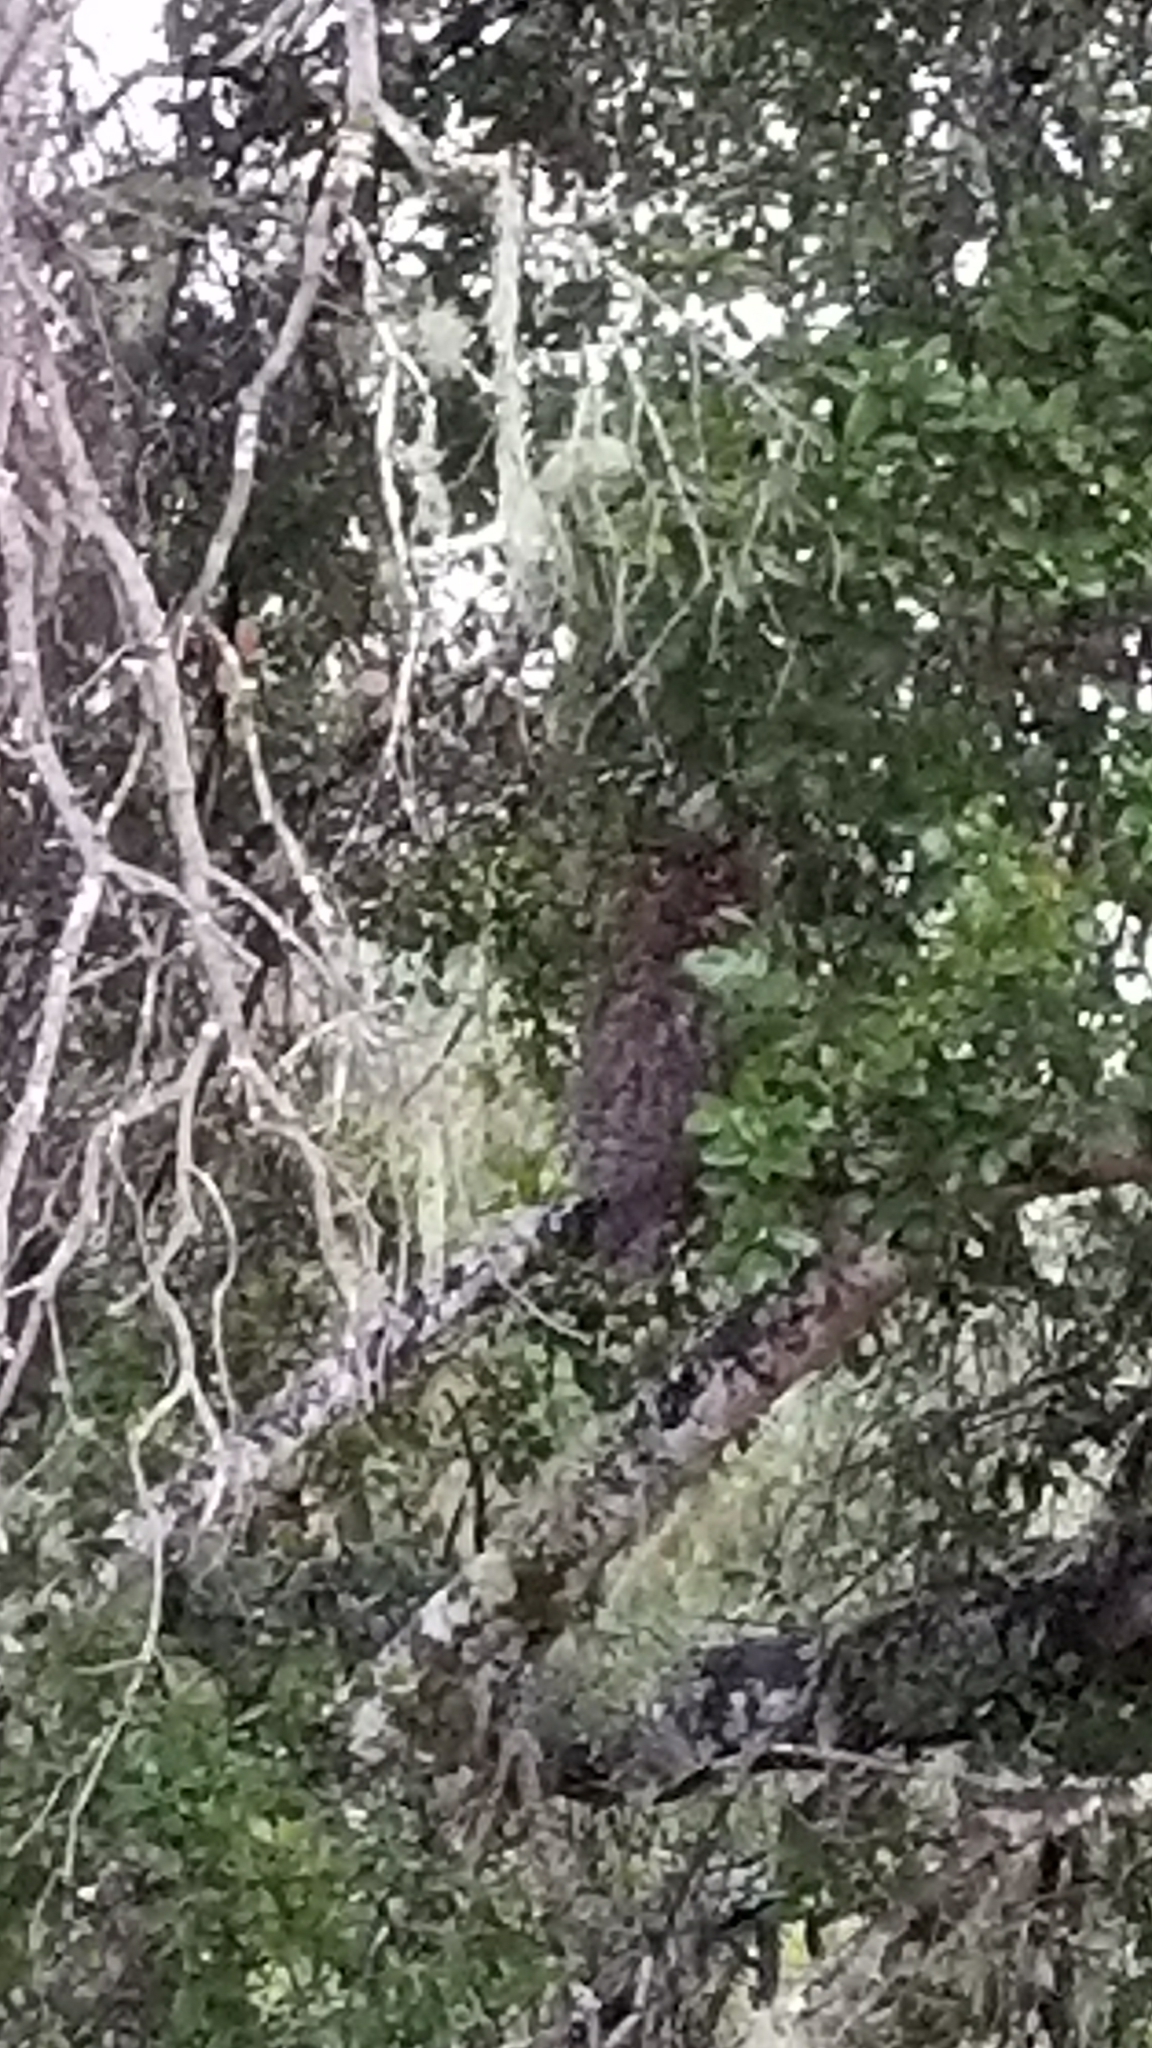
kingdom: Animalia
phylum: Chordata
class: Aves
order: Strigiformes
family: Strigidae
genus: Bubo
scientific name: Bubo virginianus
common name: Great horned owl
